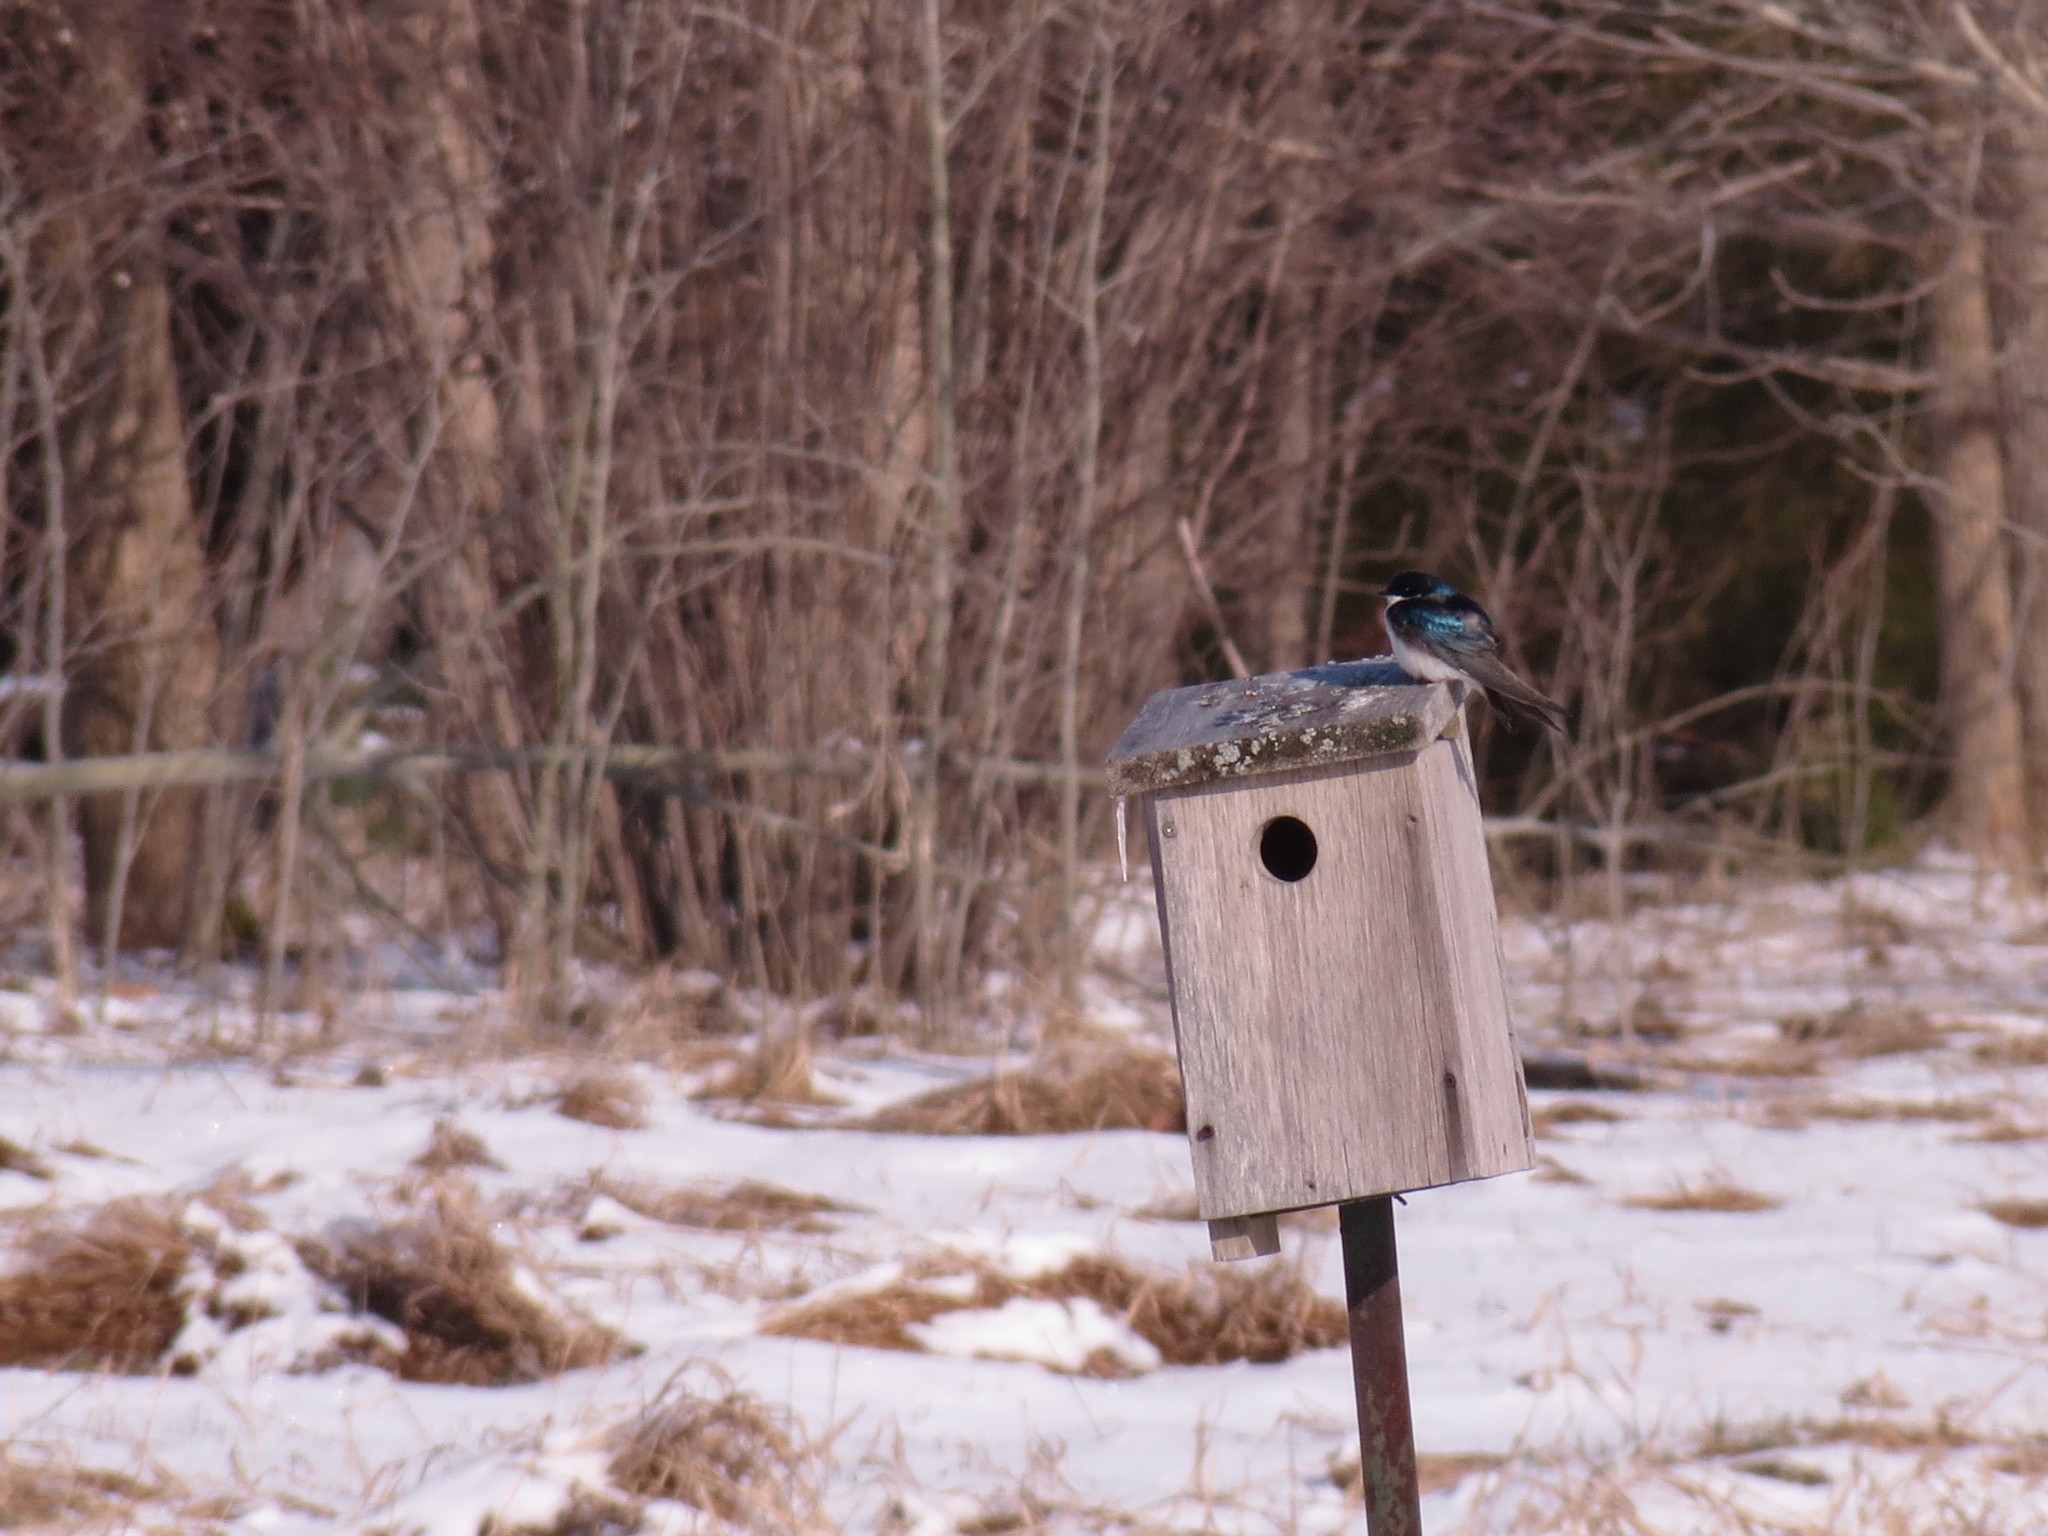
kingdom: Animalia
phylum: Chordata
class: Aves
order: Passeriformes
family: Hirundinidae
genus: Tachycineta
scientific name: Tachycineta bicolor
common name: Tree swallow
